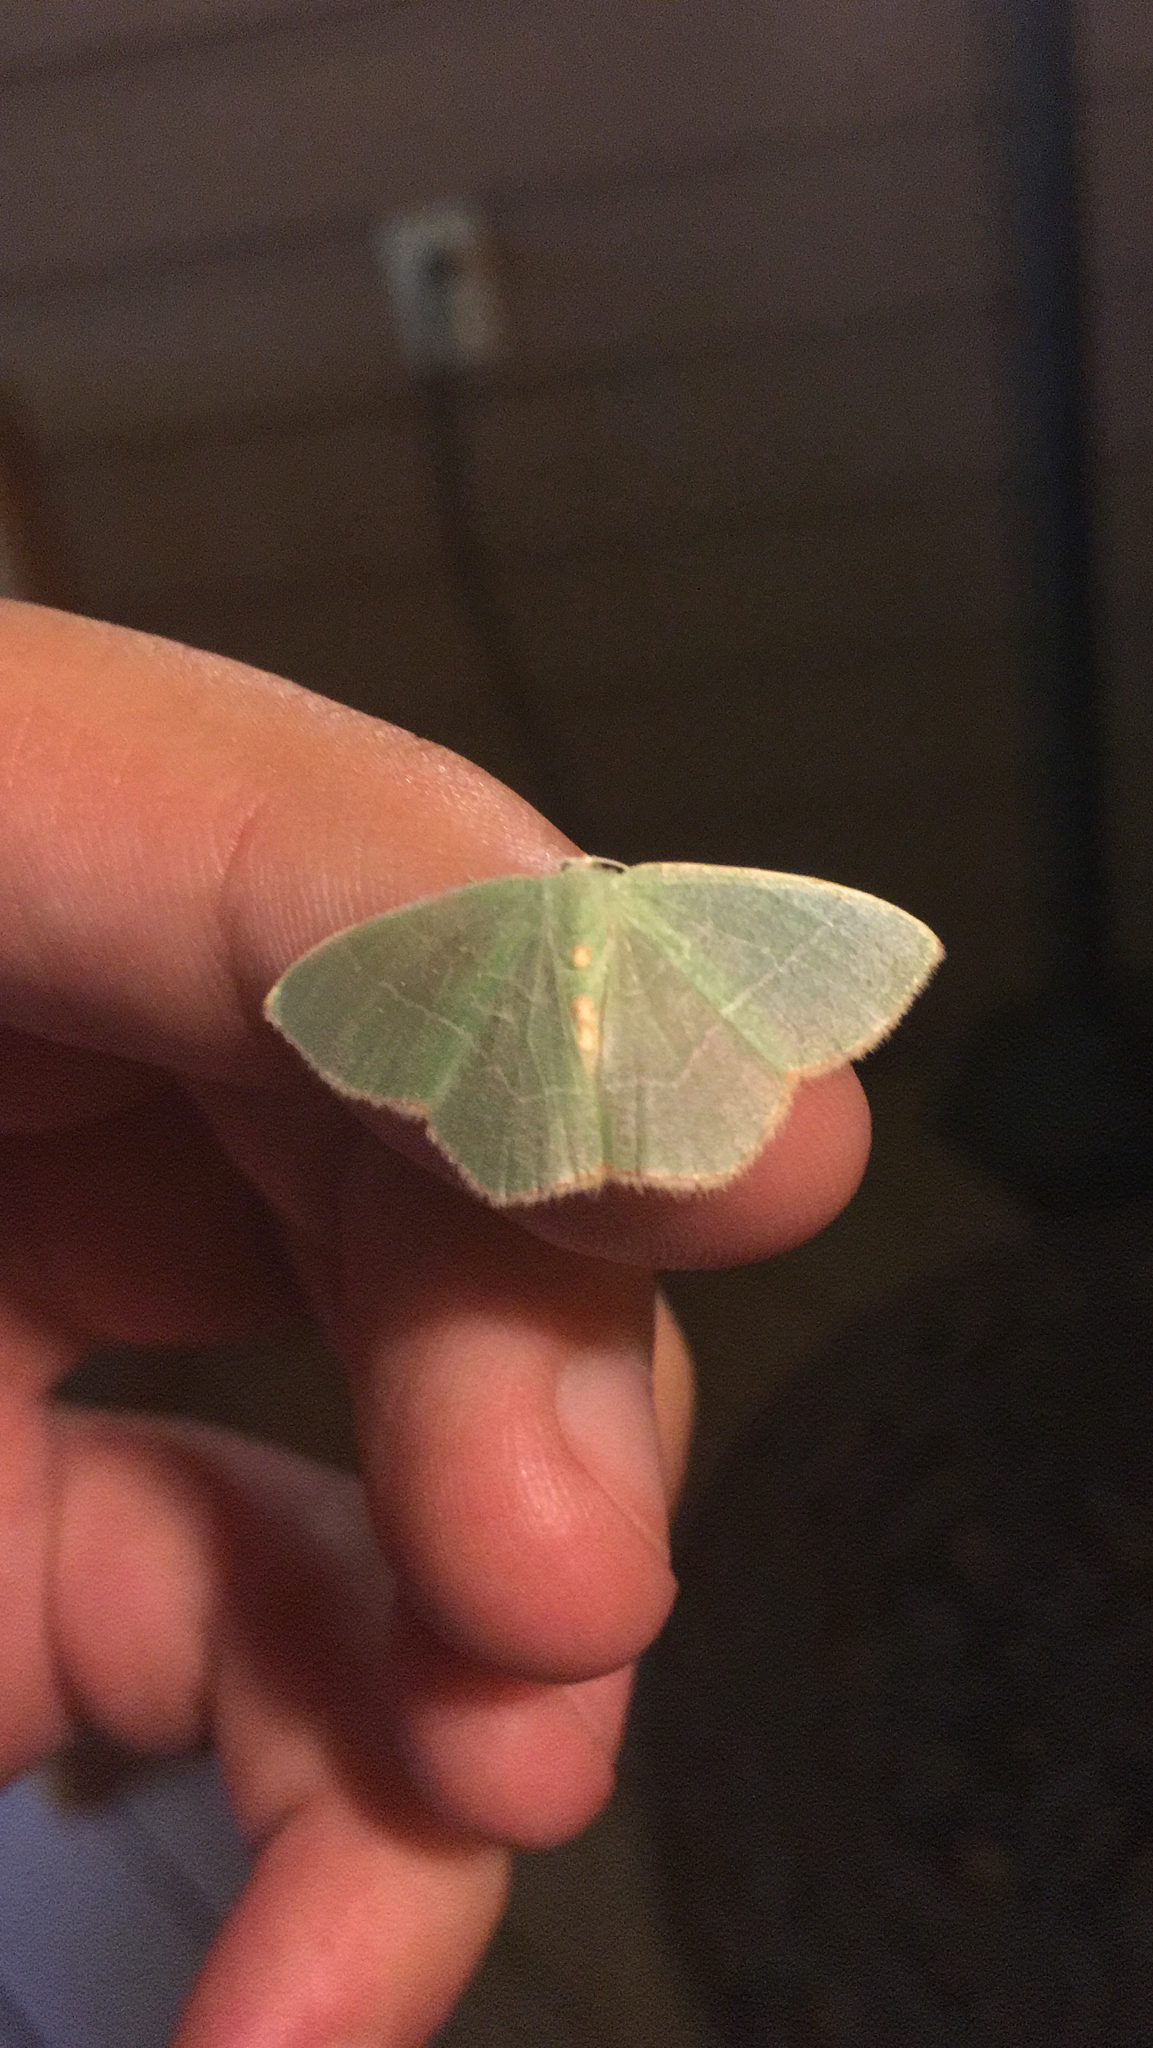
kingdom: Animalia
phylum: Arthropoda
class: Insecta
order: Lepidoptera
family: Geometridae
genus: Nemoria
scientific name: Nemoria bistriaria
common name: Red-fringed emerald
